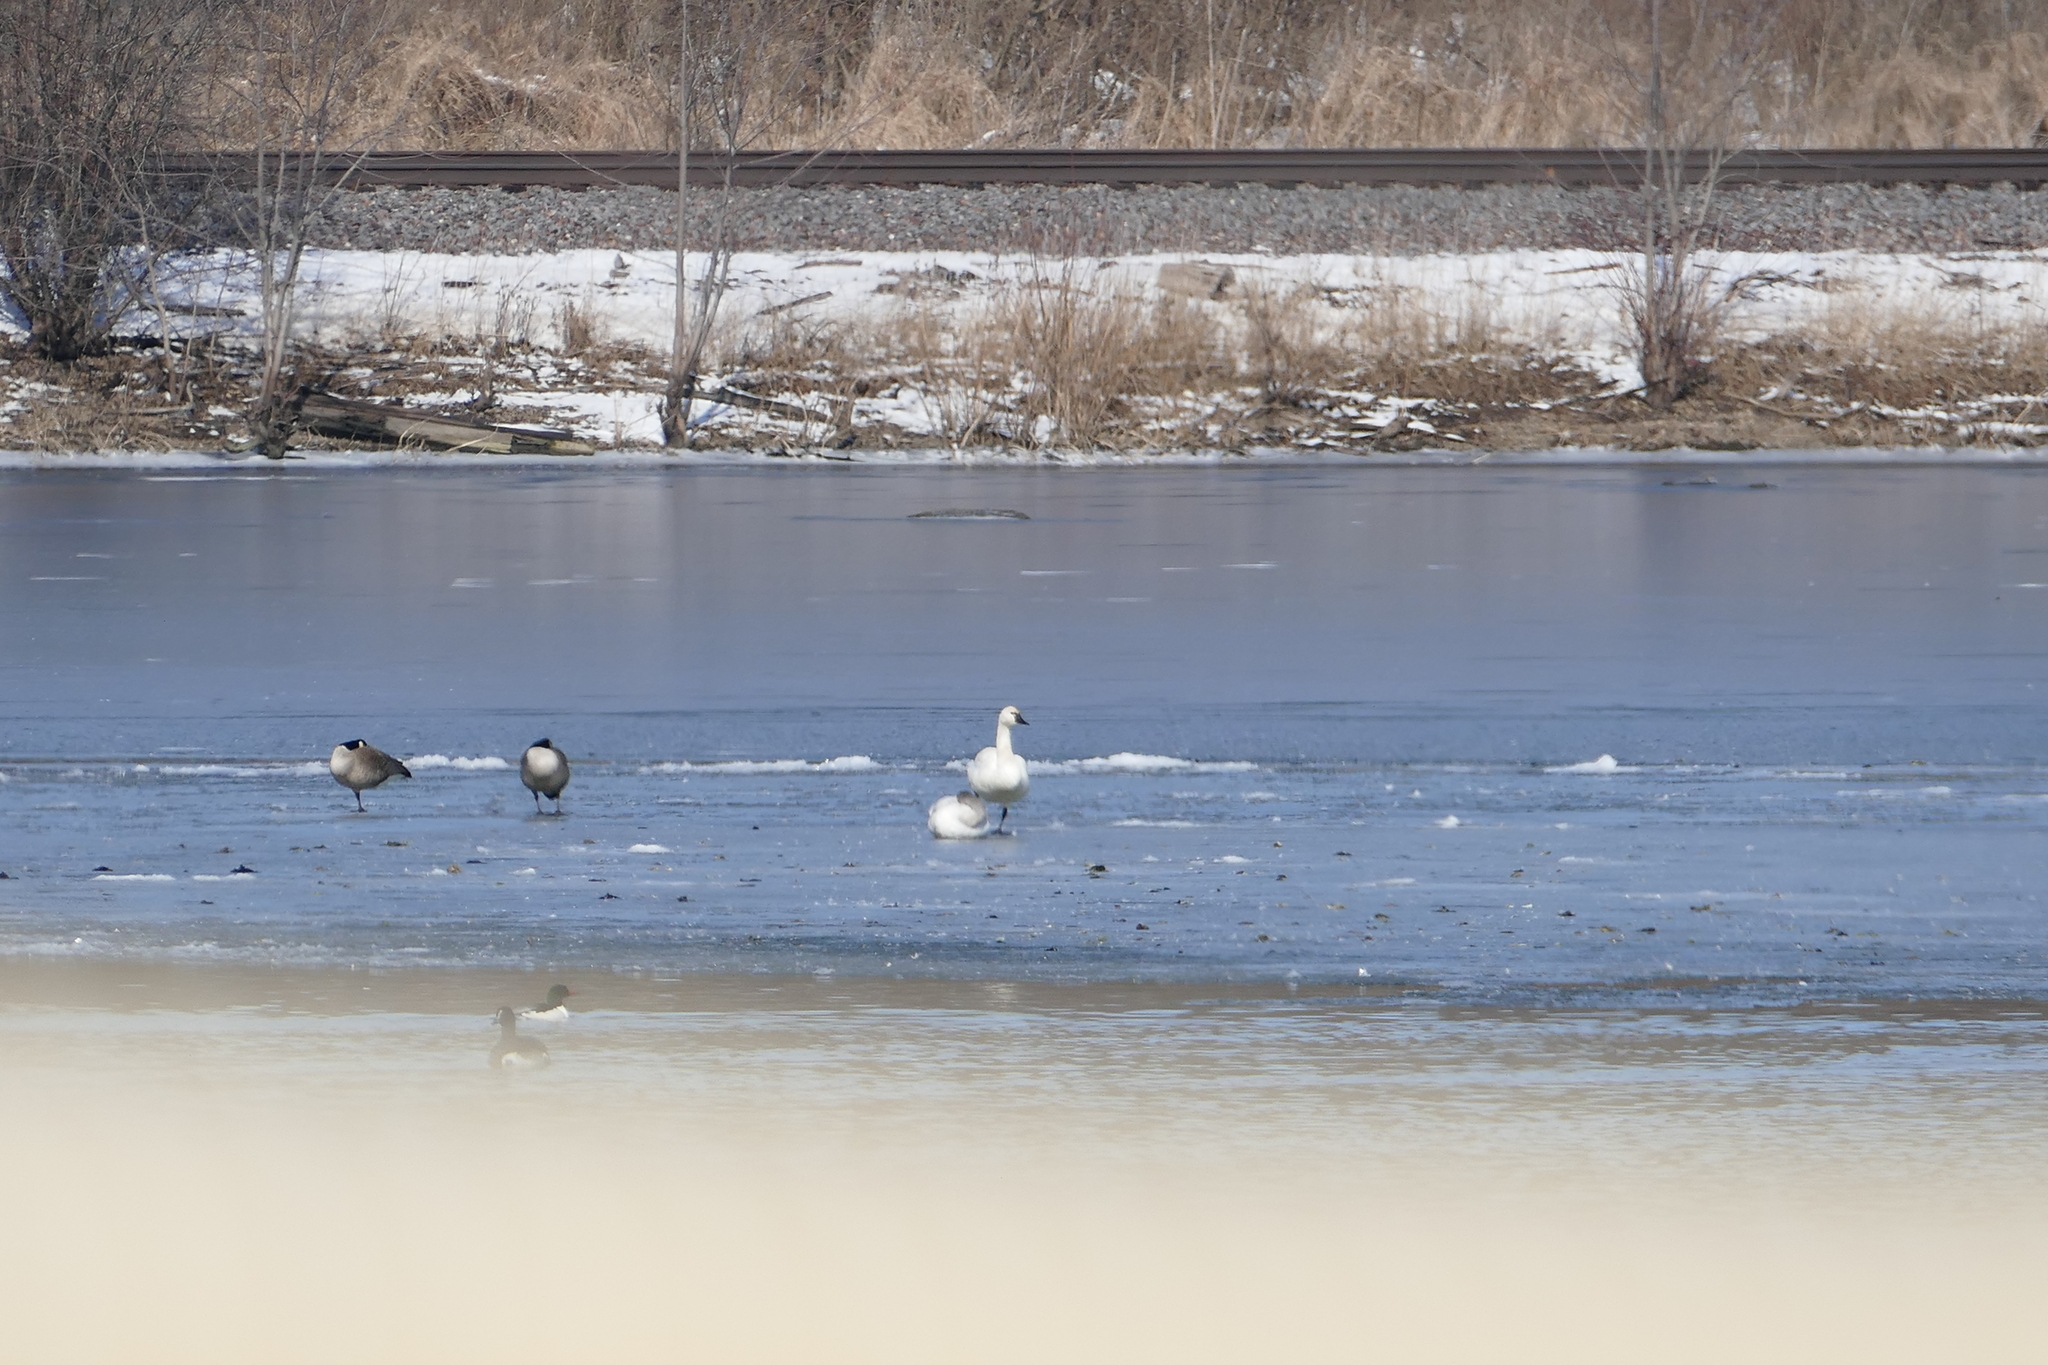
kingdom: Animalia
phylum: Chordata
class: Aves
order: Anseriformes
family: Anatidae
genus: Cygnus
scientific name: Cygnus columbianus
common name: Tundra swan
